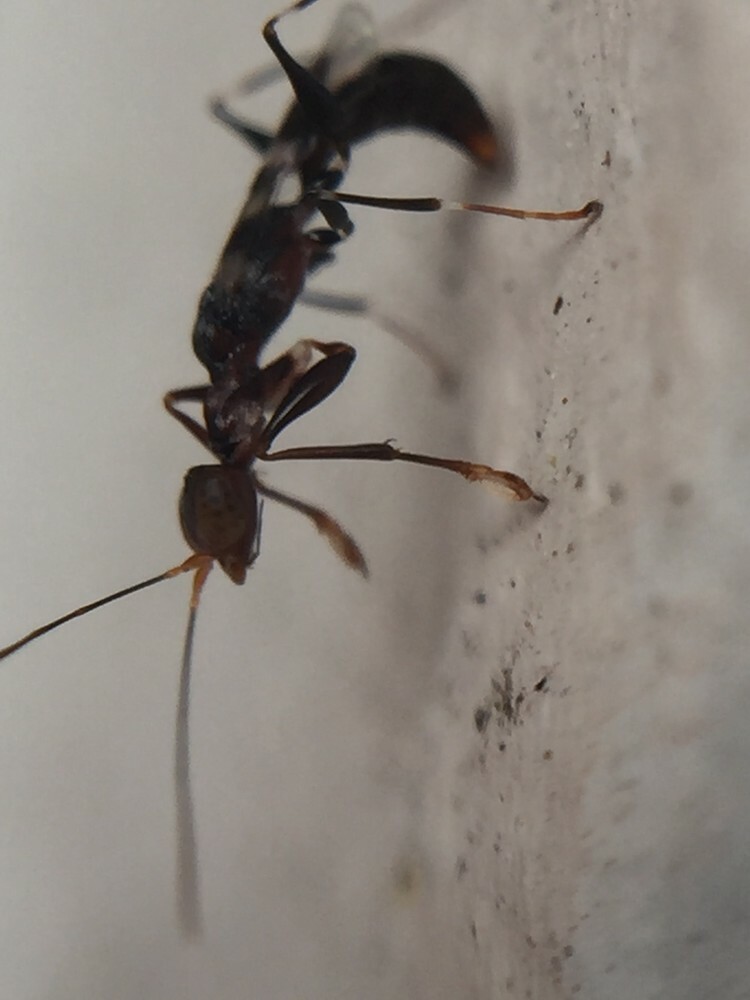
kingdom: Animalia
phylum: Arthropoda
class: Insecta
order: Hymenoptera
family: Dryinidae
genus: Dryinus
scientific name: Dryinus koebelei
